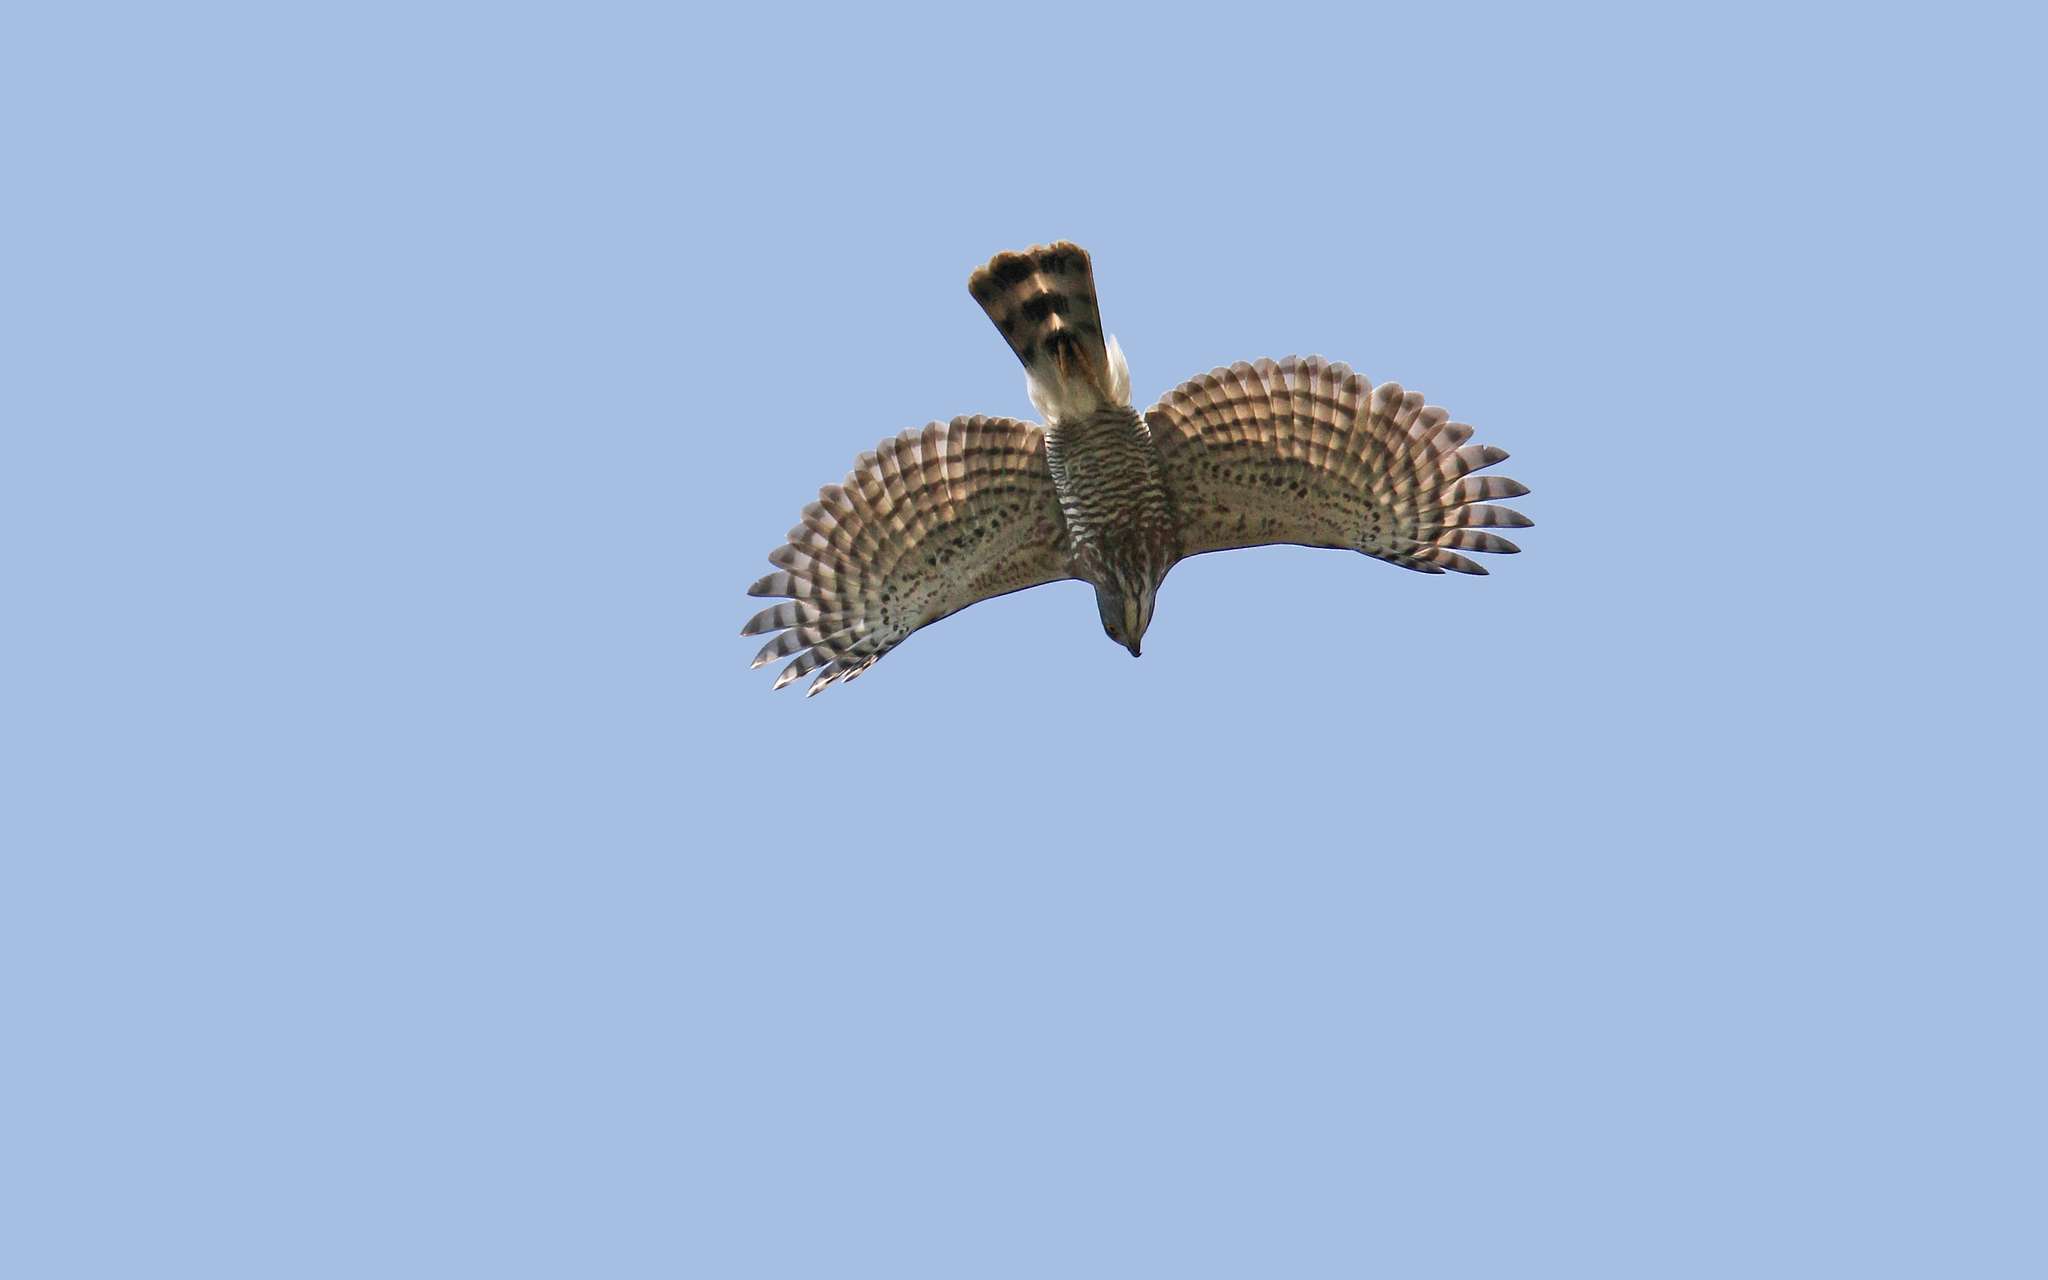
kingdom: Animalia
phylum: Chordata
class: Aves
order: Accipitriformes
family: Accipitridae
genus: Accipiter
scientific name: Accipiter trivirgatus
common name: Crested goshawk
